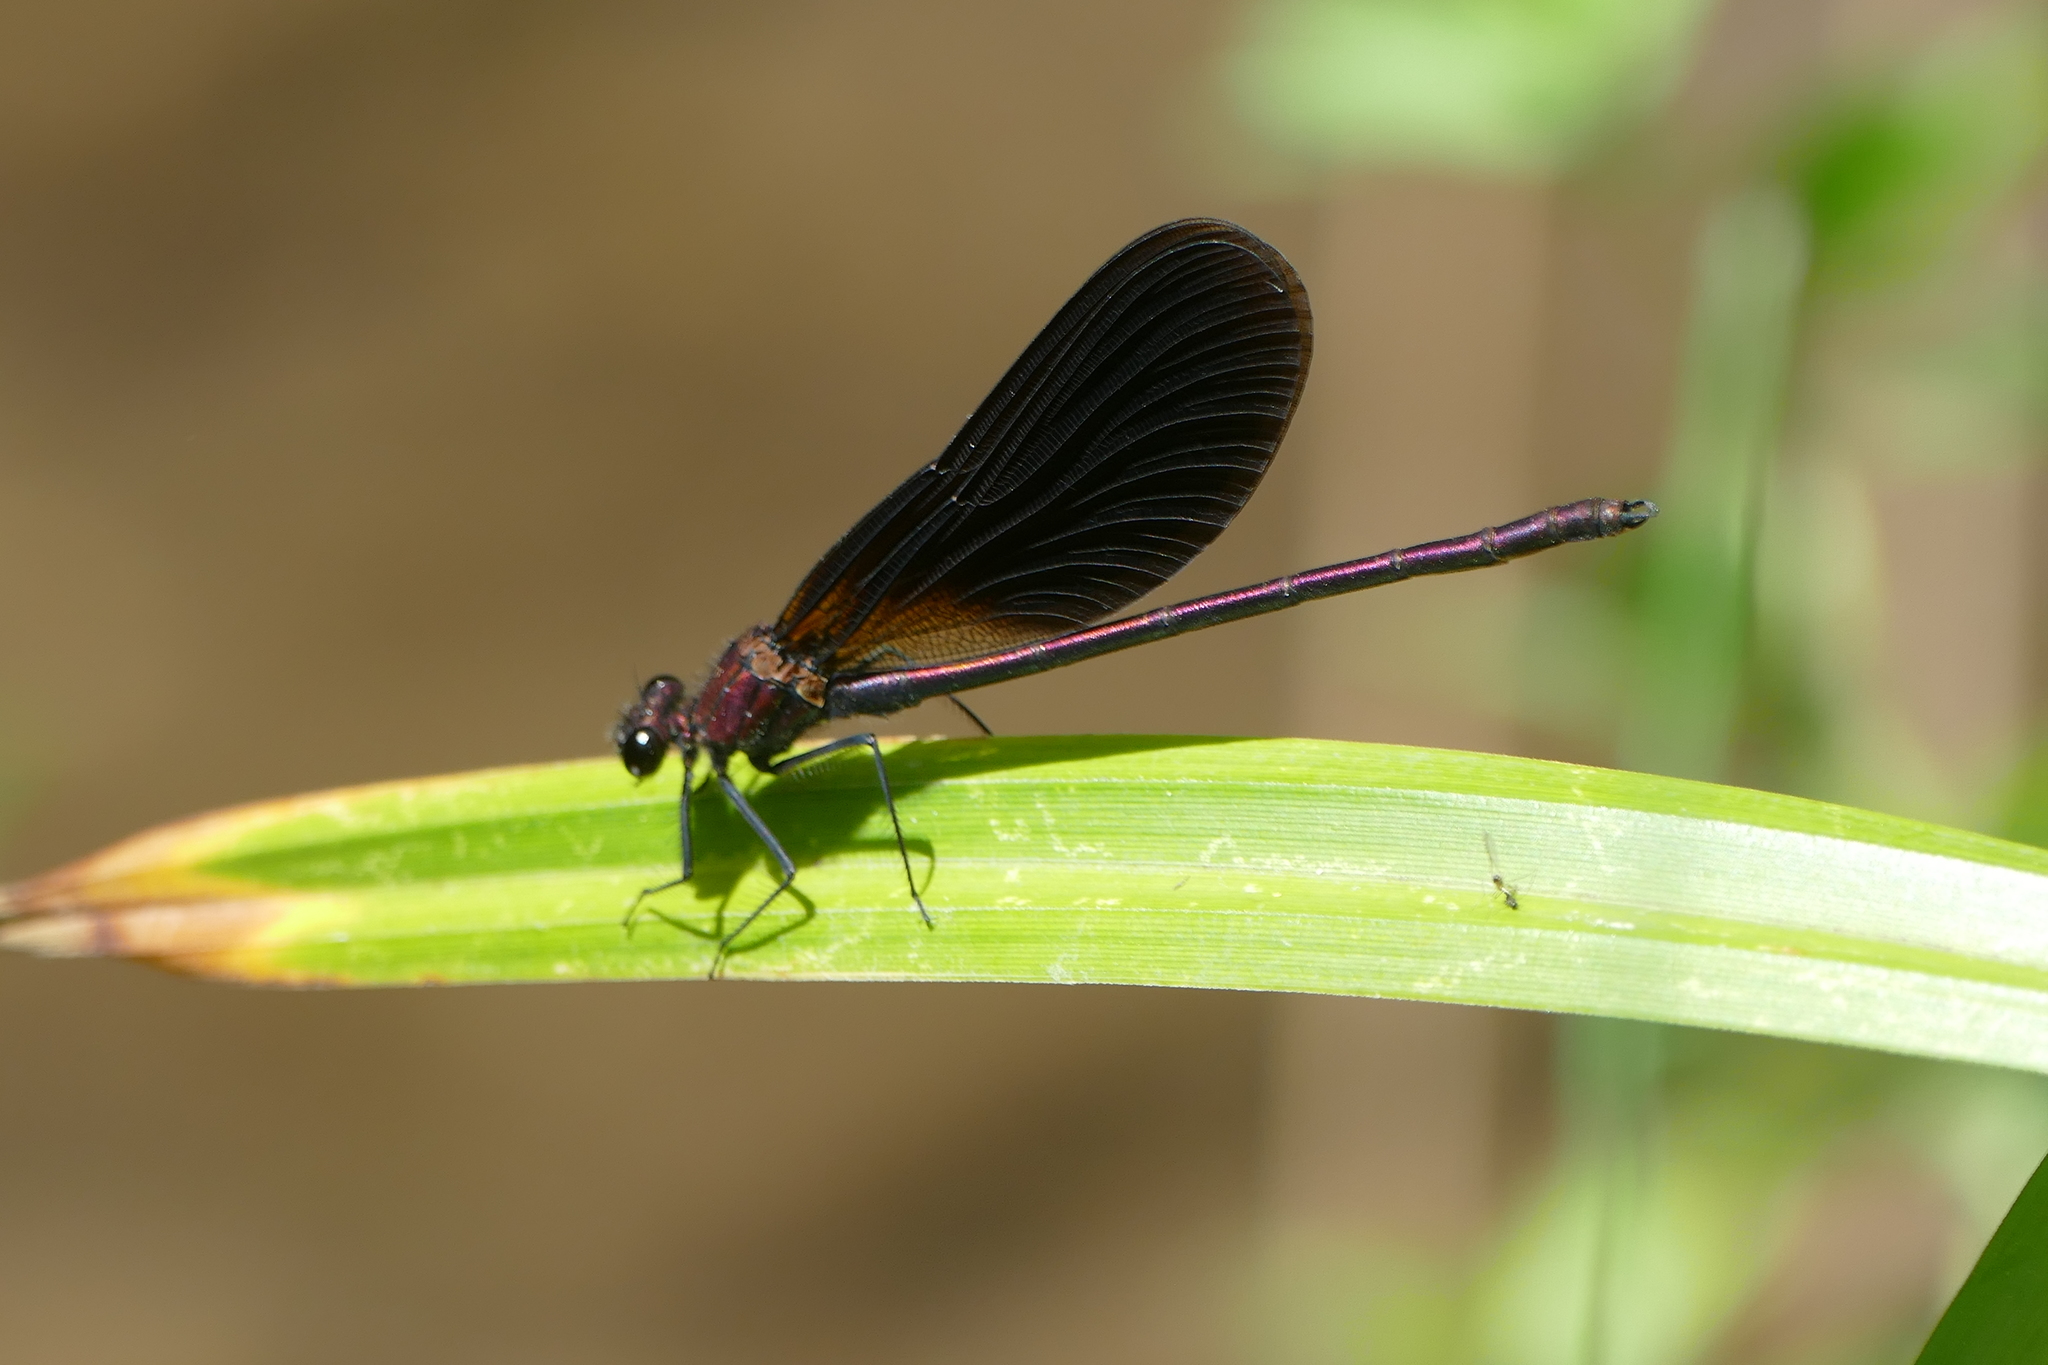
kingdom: Animalia
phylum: Arthropoda
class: Insecta
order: Odonata
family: Calopterygidae
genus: Calopteryx
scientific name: Calopteryx haemorrhoidalis
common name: Copper demoiselle
